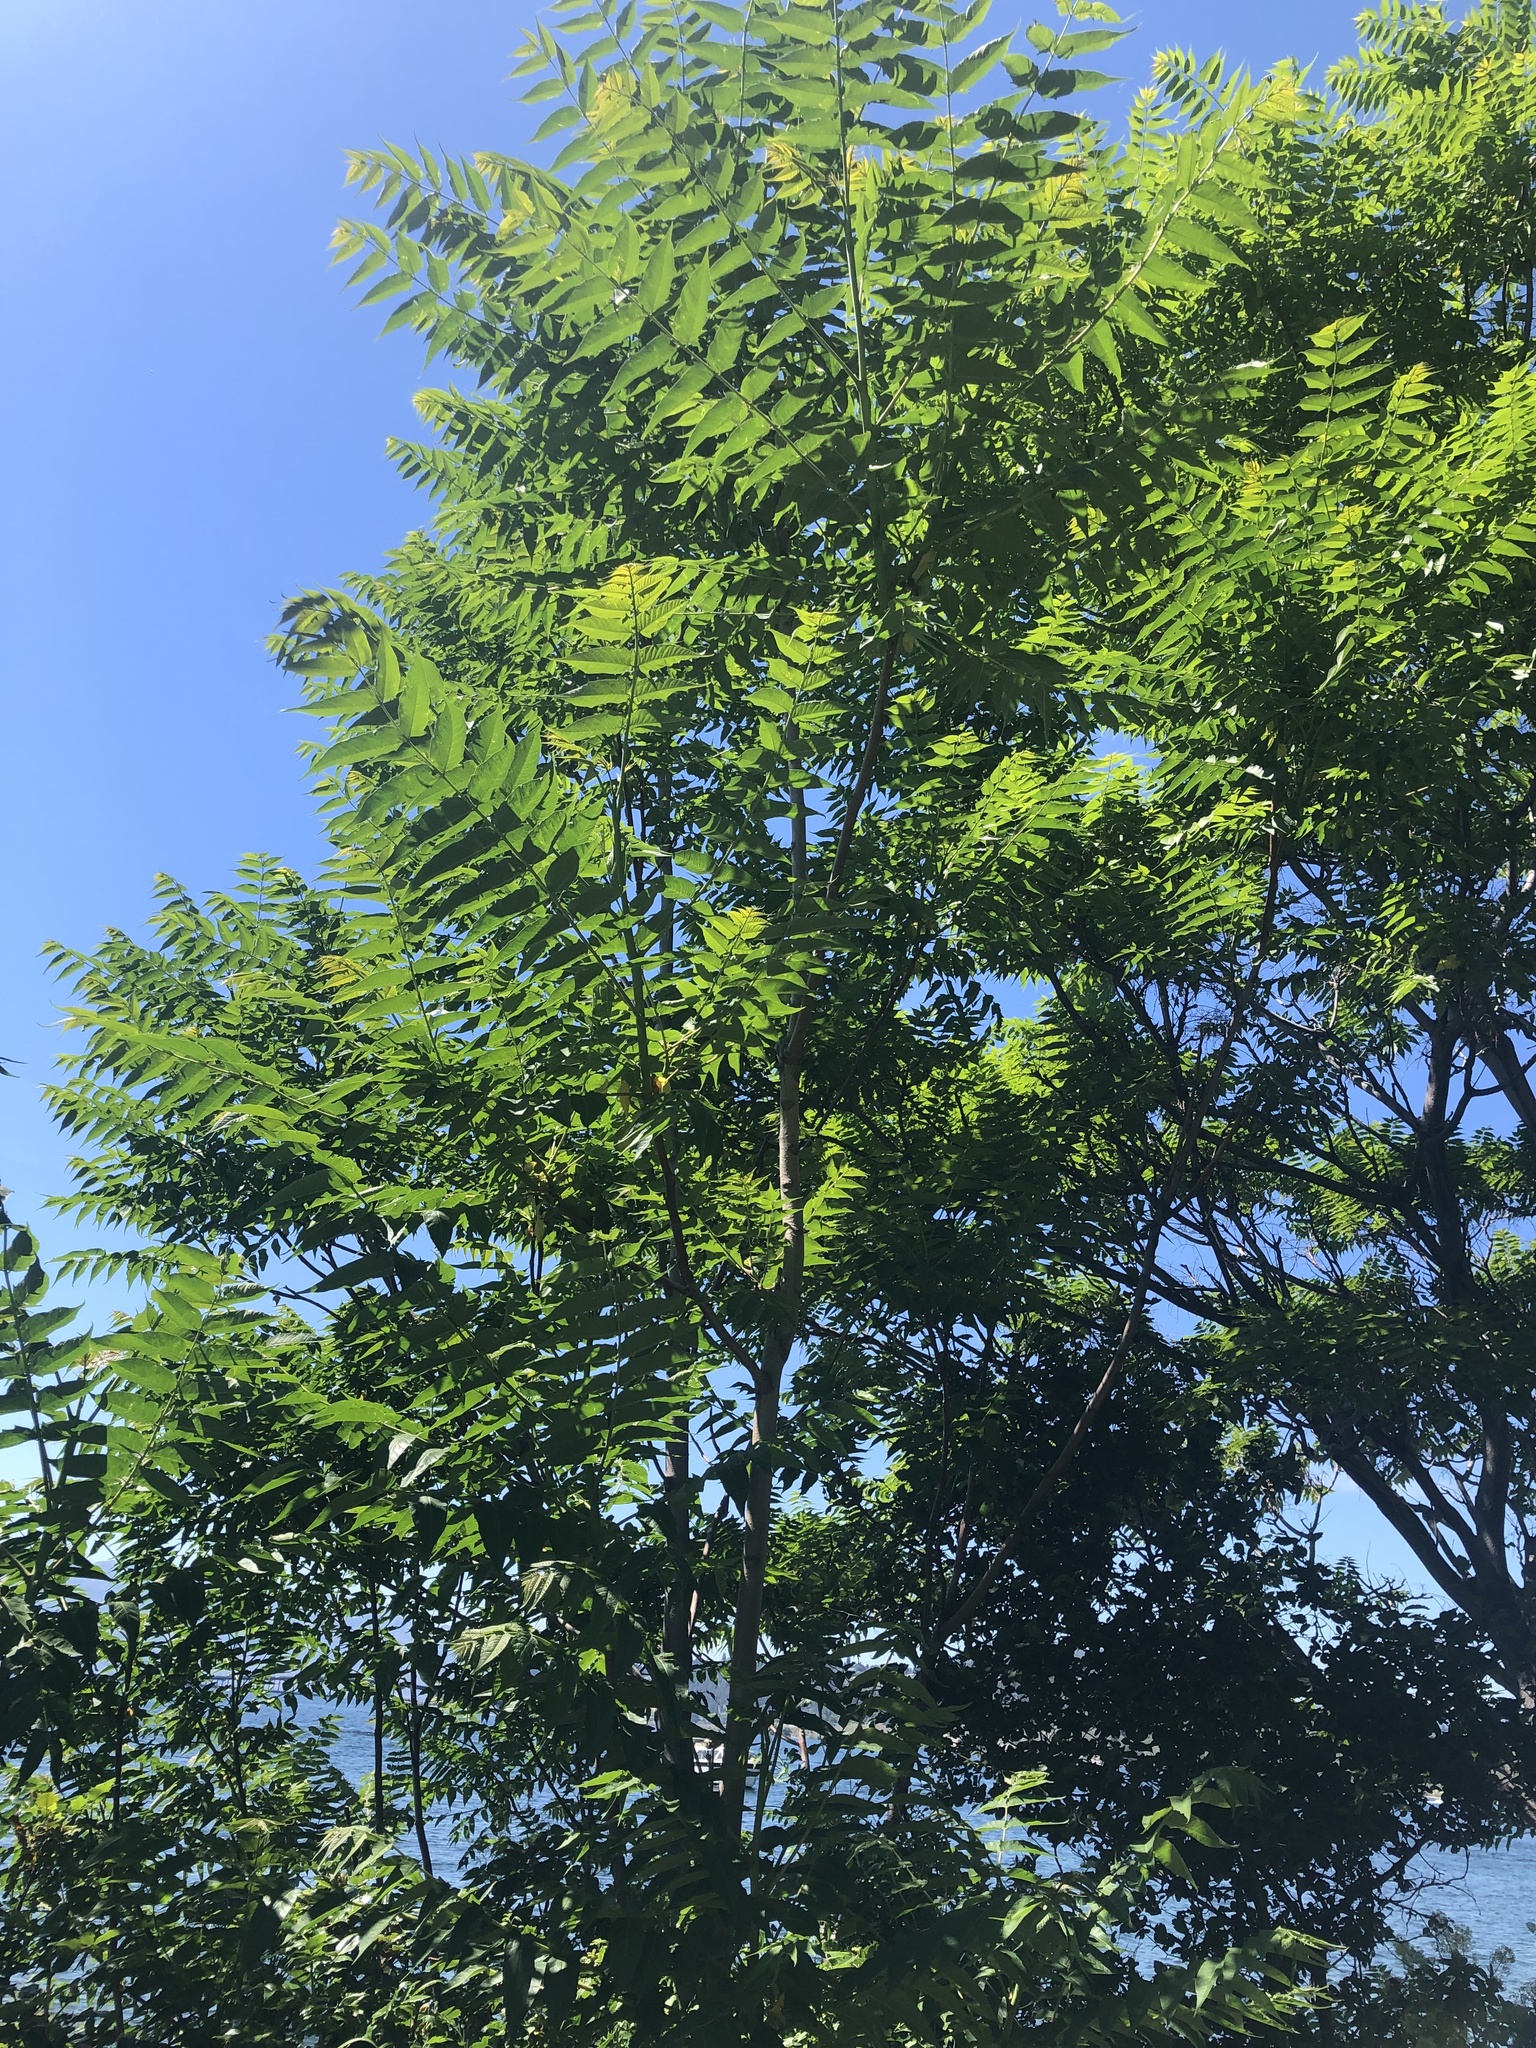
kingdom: Plantae
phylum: Tracheophyta
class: Magnoliopsida
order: Sapindales
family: Simaroubaceae
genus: Ailanthus
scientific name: Ailanthus altissima
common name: Tree-of-heaven
